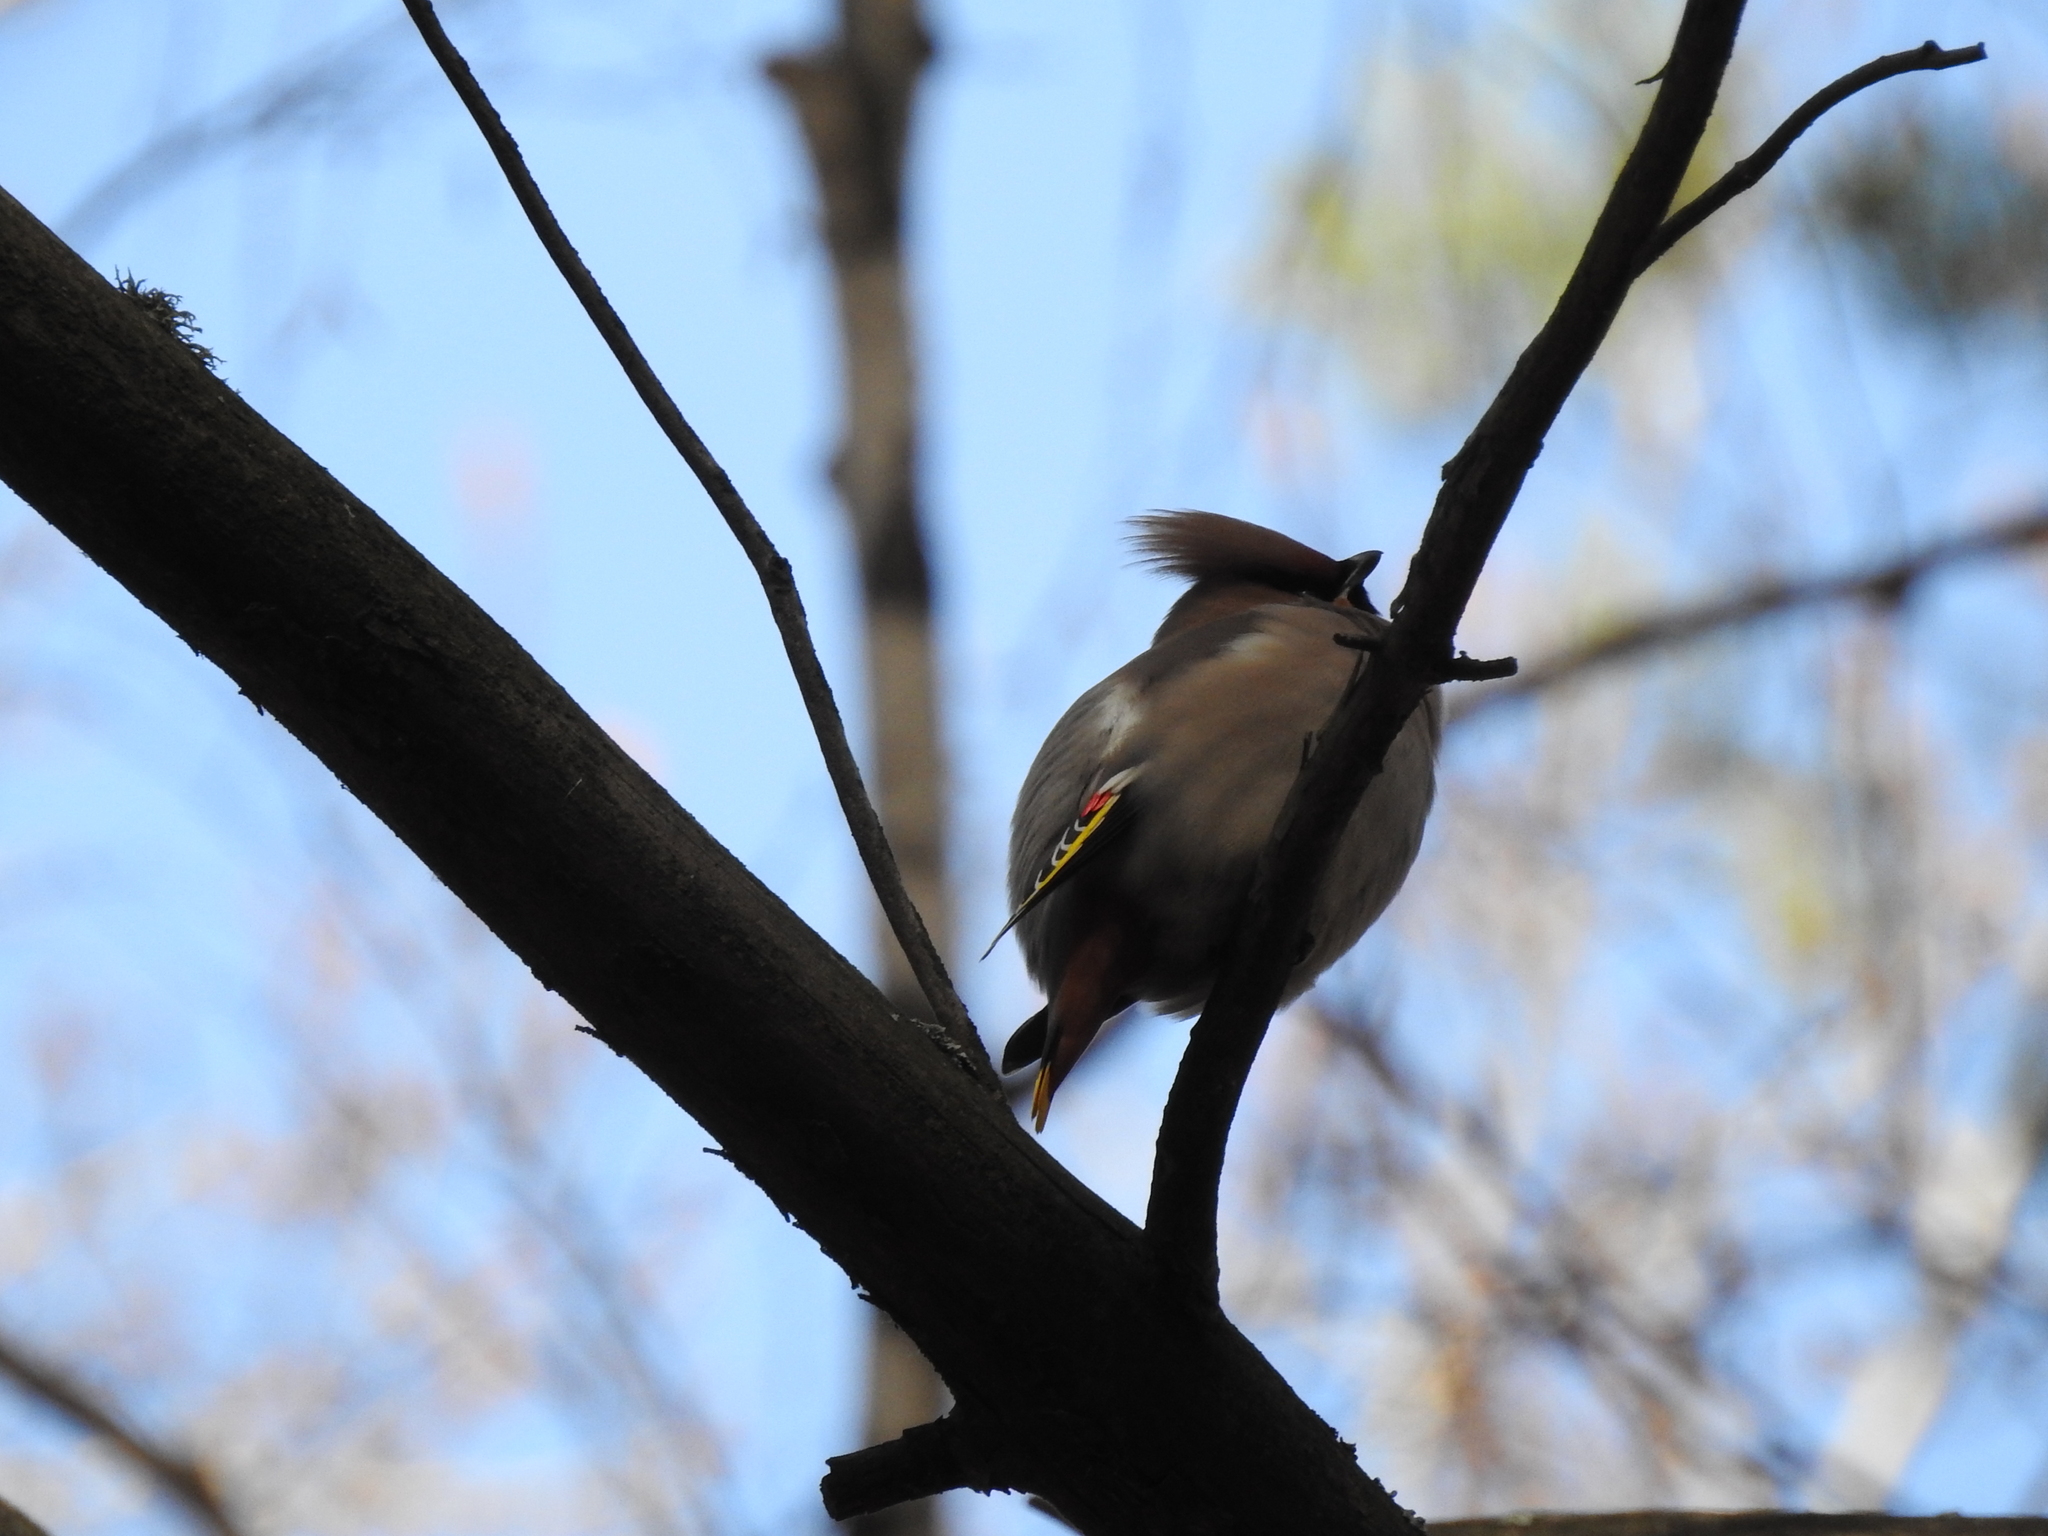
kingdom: Animalia
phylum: Chordata
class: Aves
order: Passeriformes
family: Bombycillidae
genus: Bombycilla
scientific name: Bombycilla garrulus
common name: Bohemian waxwing
